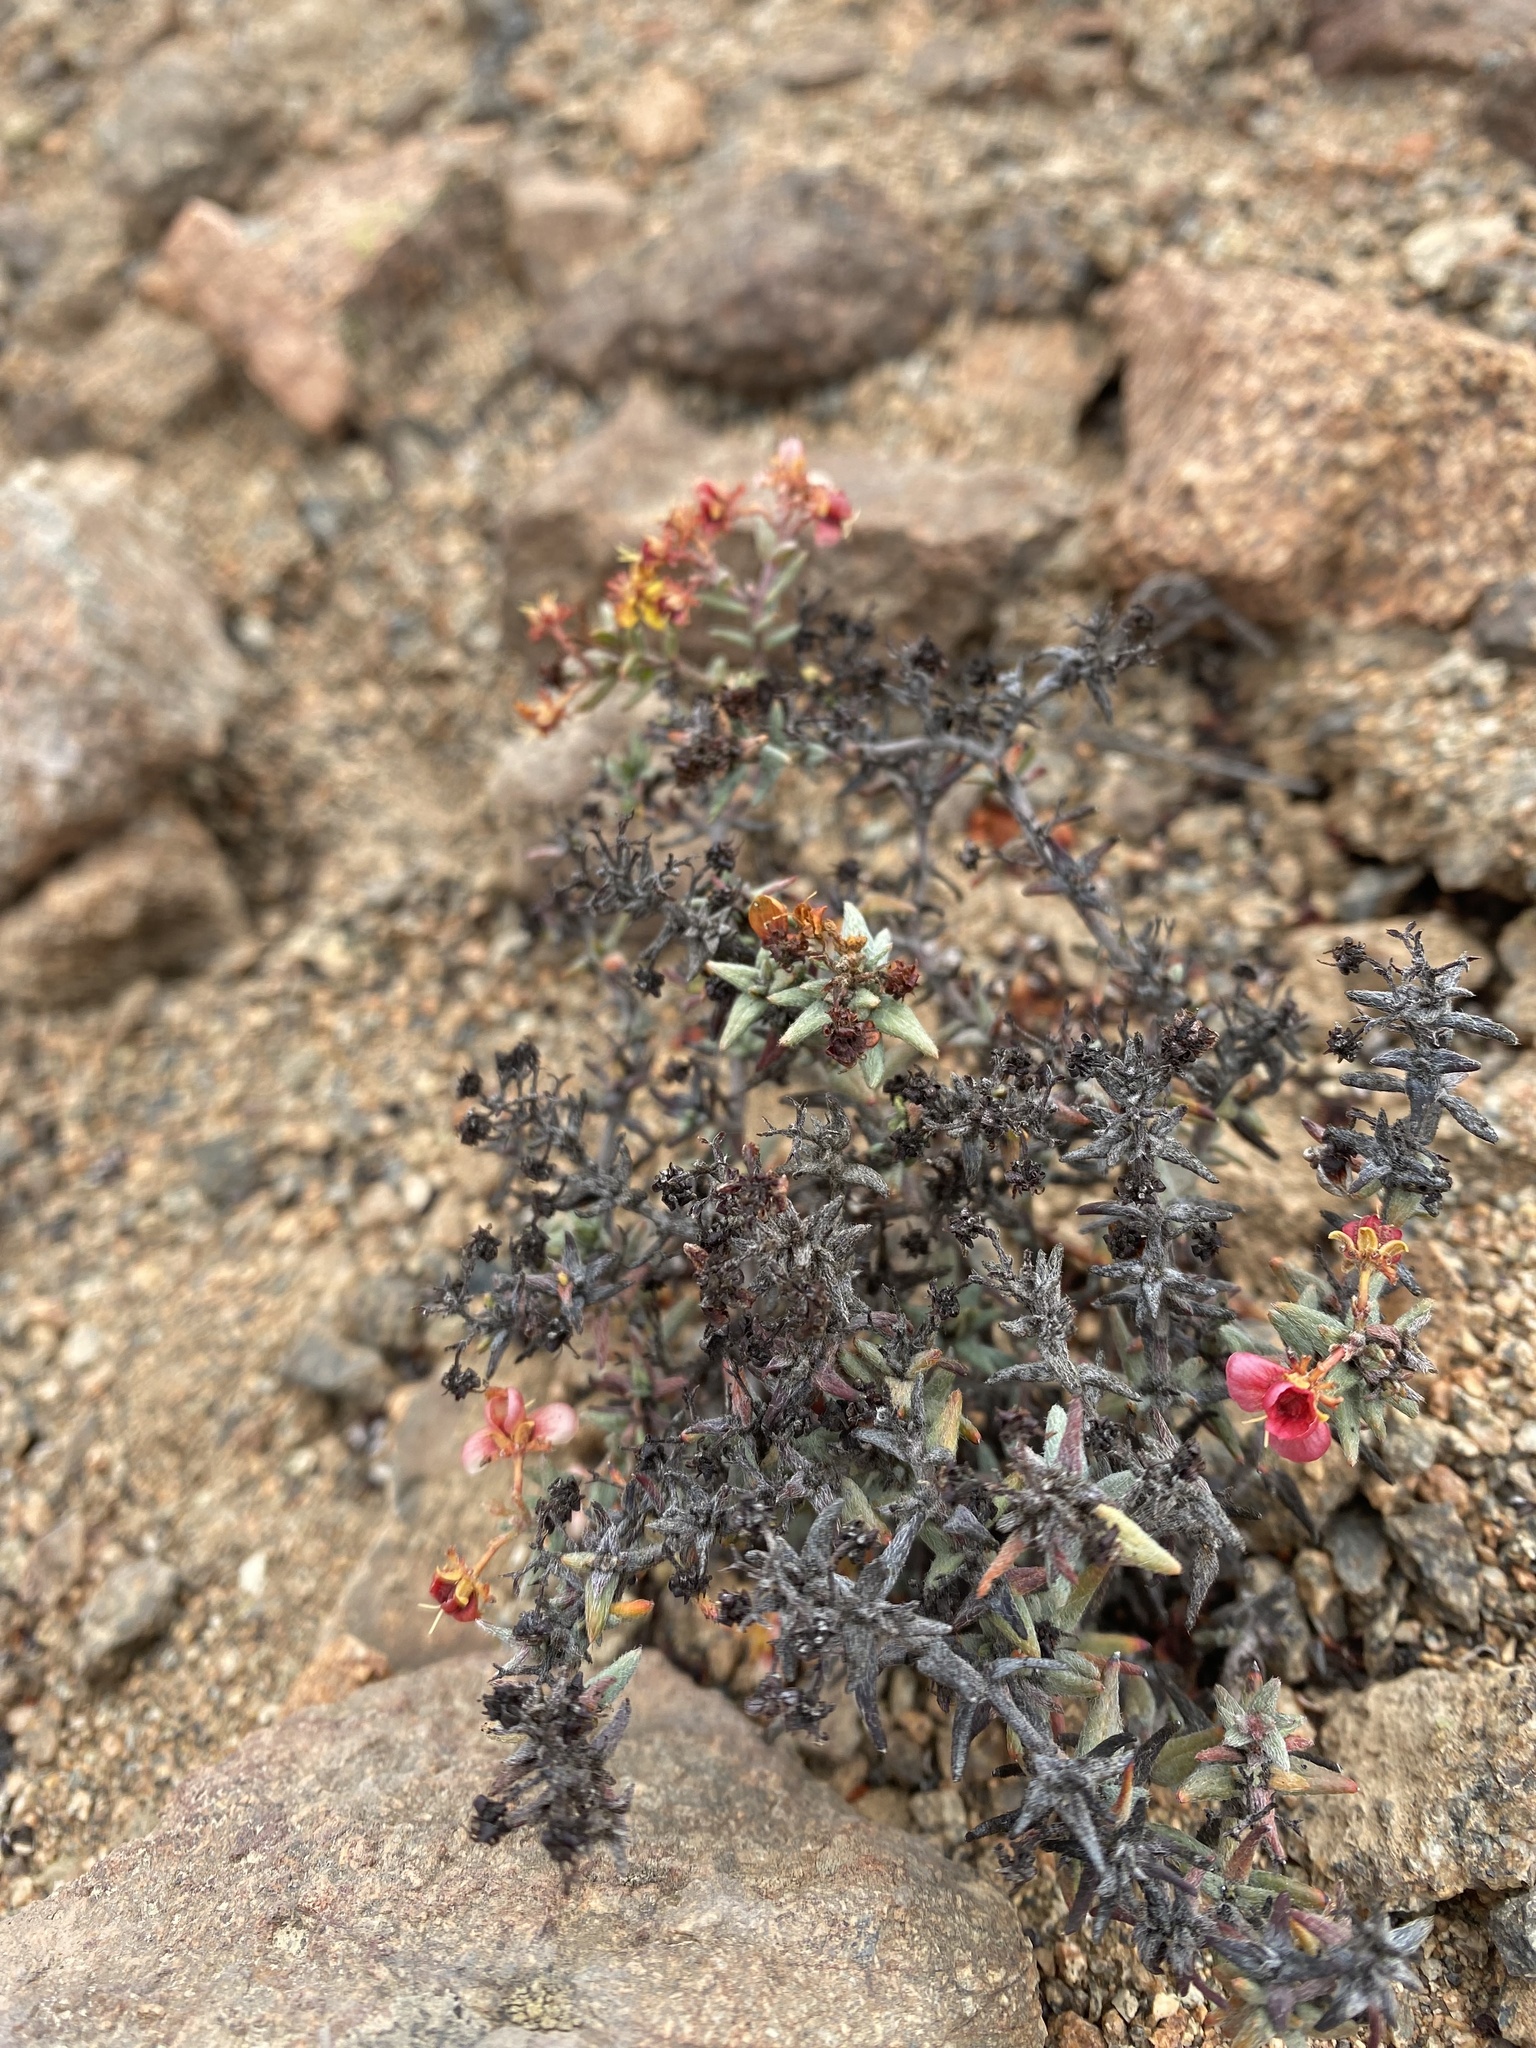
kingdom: Plantae
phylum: Tracheophyta
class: Magnoliopsida
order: Malpighiales
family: Malpighiaceae
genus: Dinemandra
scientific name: Dinemandra ericoides
